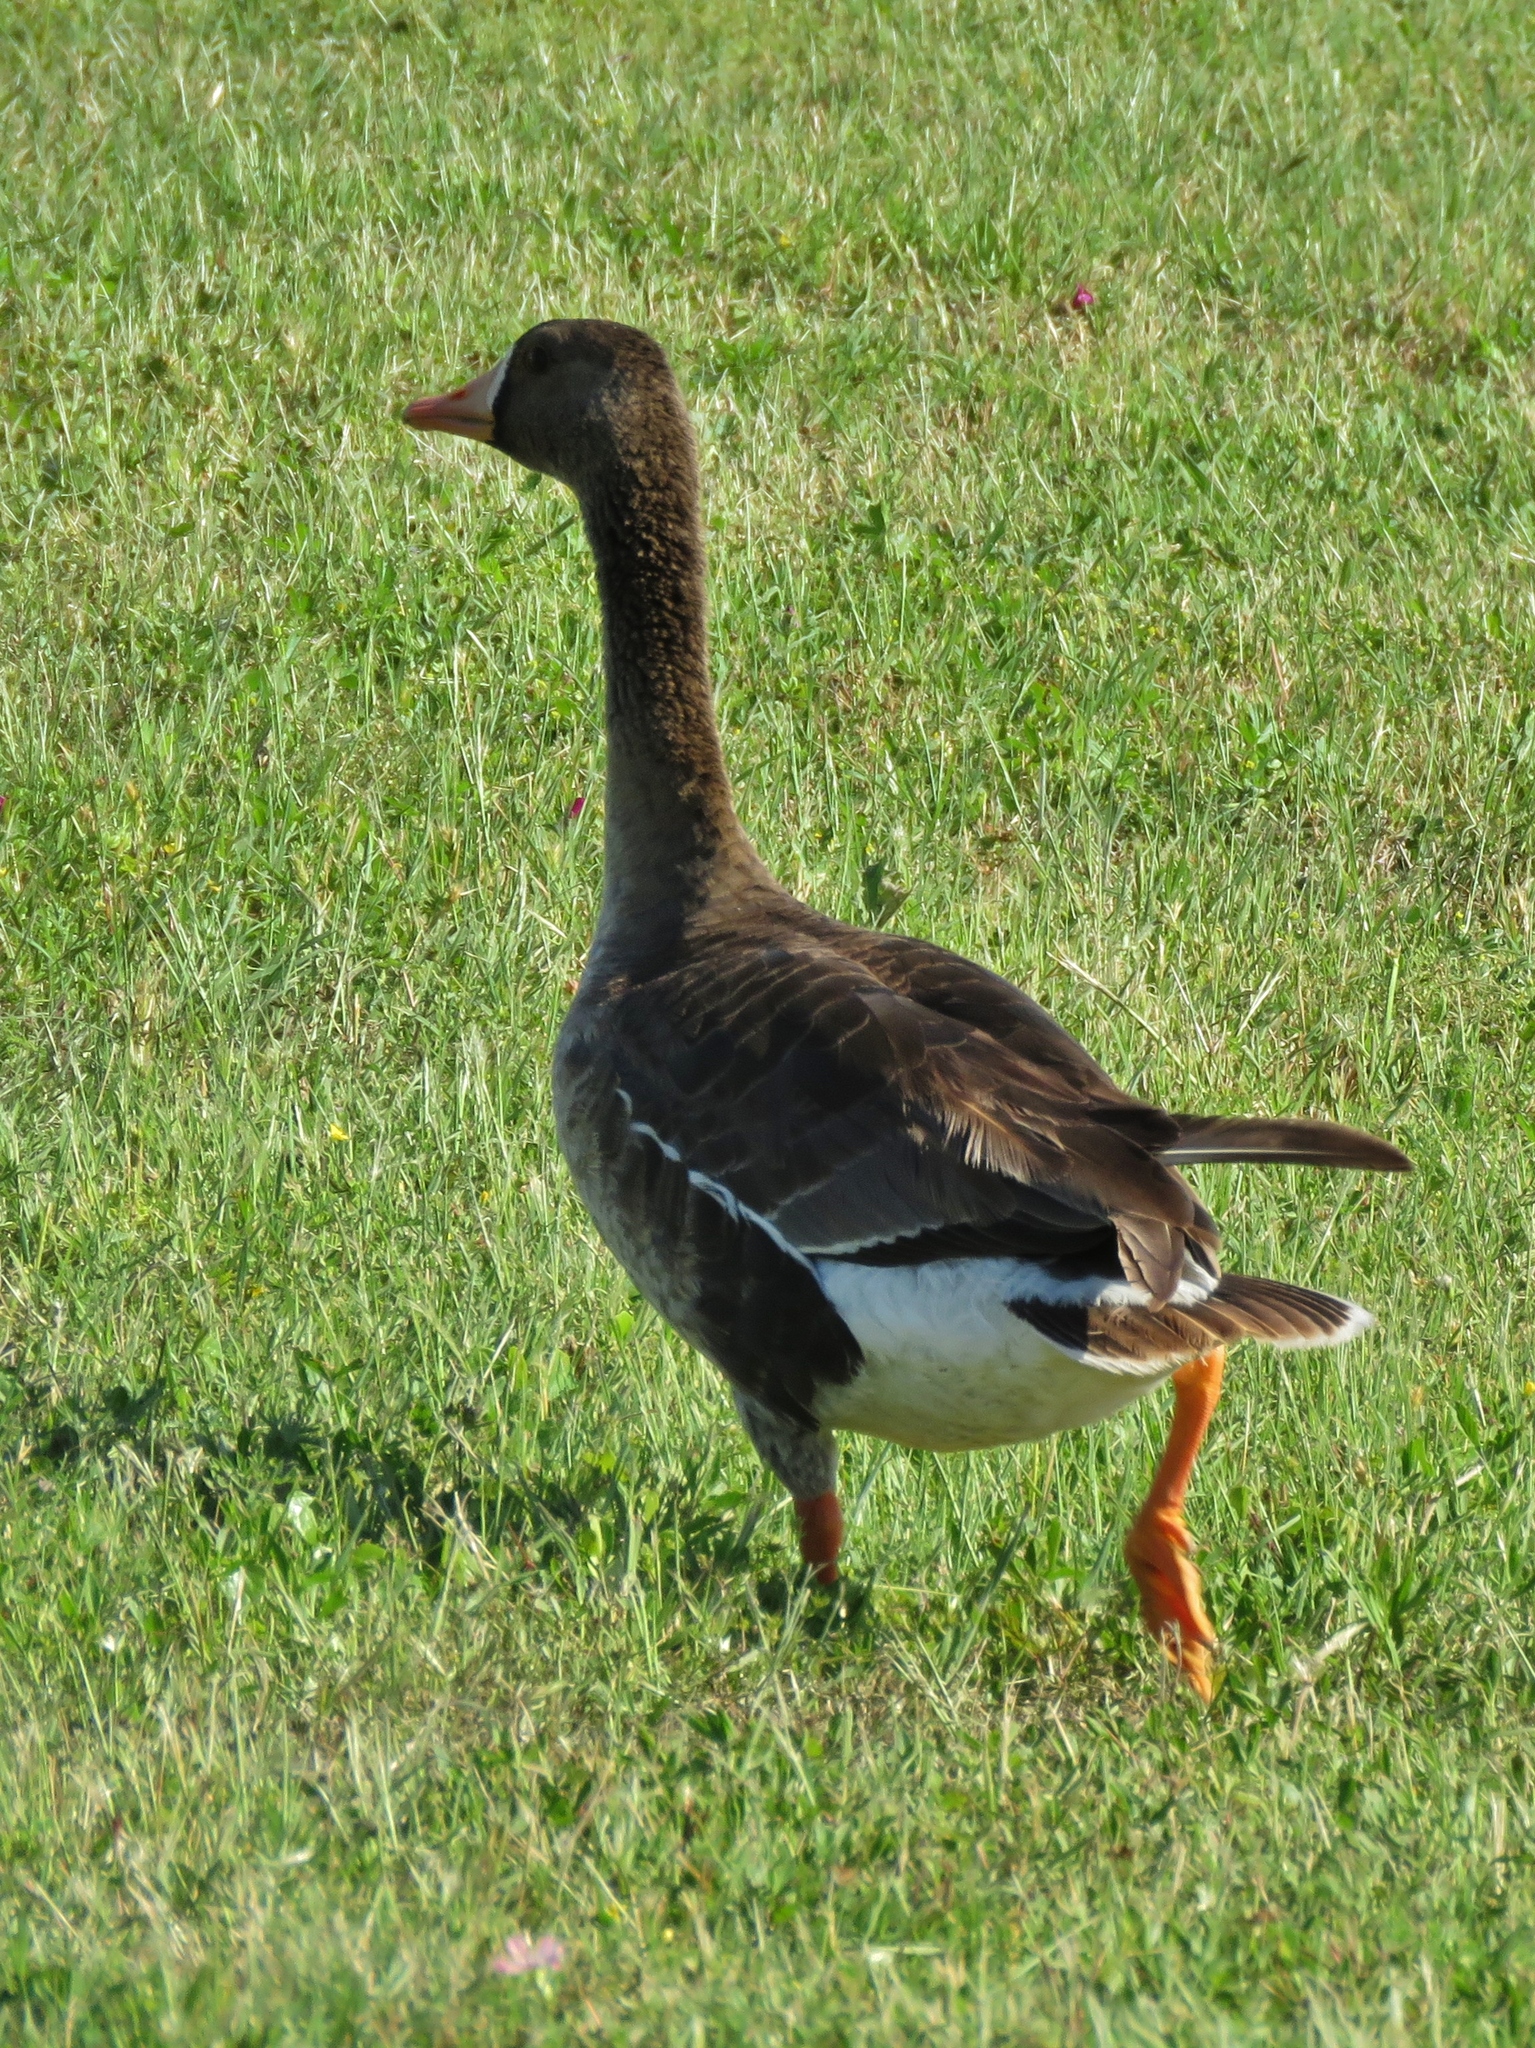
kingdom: Animalia
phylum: Chordata
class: Aves
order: Anseriformes
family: Anatidae
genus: Anser
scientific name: Anser albifrons
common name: Greater white-fronted goose
